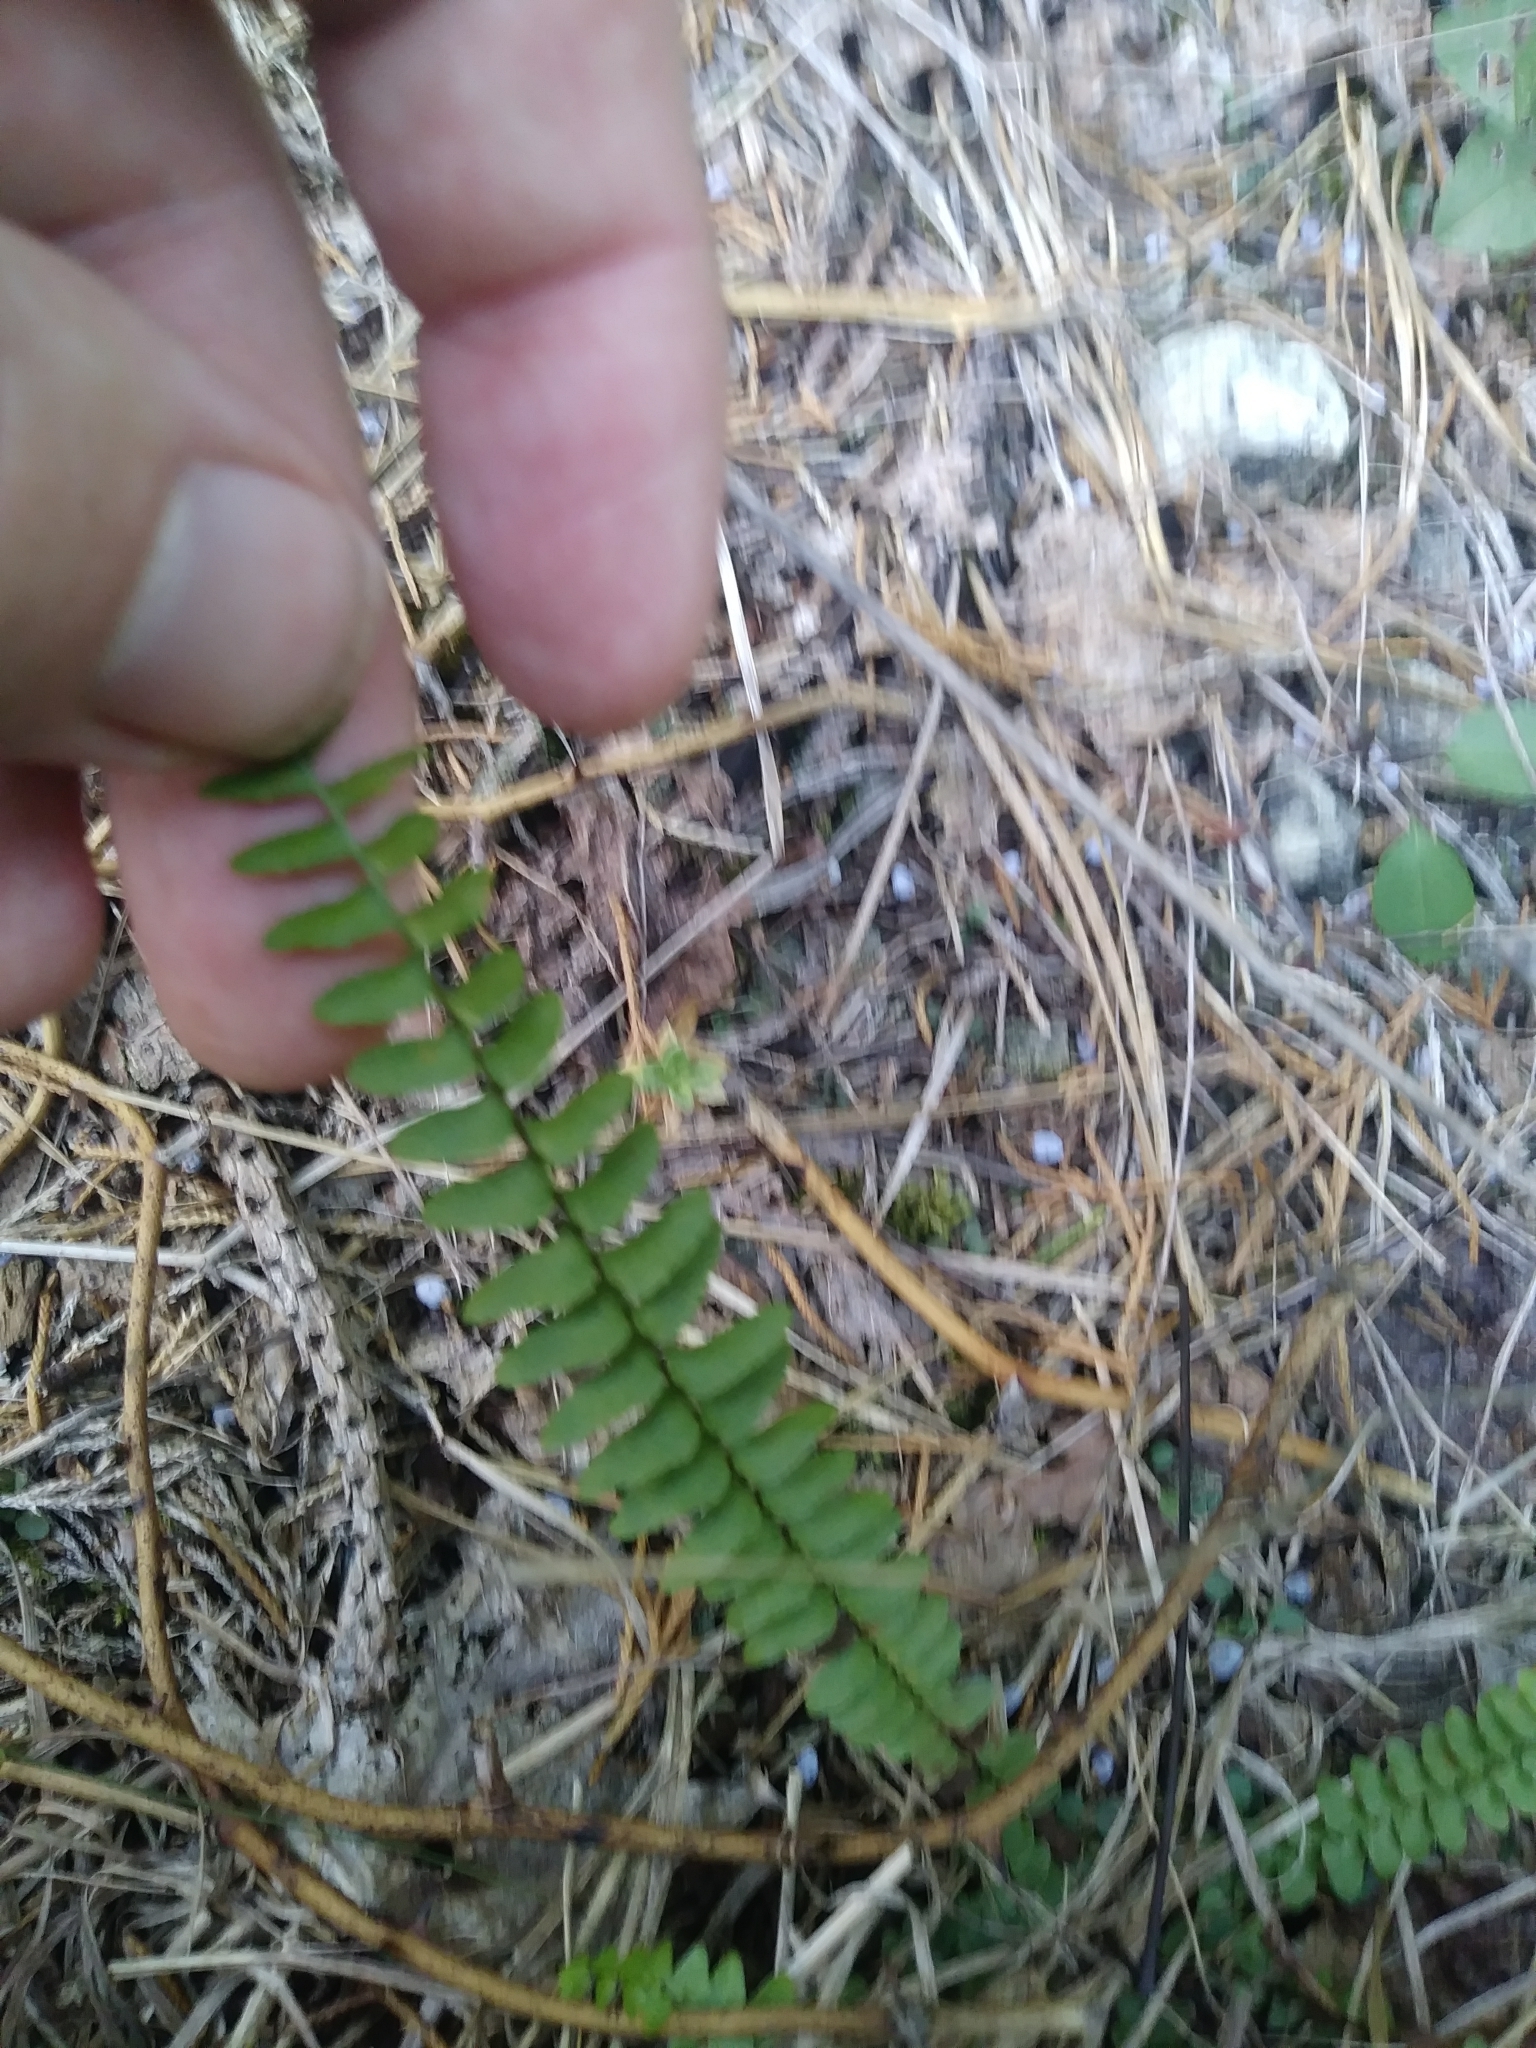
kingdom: Plantae
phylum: Tracheophyta
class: Polypodiopsida
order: Polypodiales
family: Aspleniaceae
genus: Asplenium
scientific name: Asplenium platyneuron
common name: Ebony spleenwort
